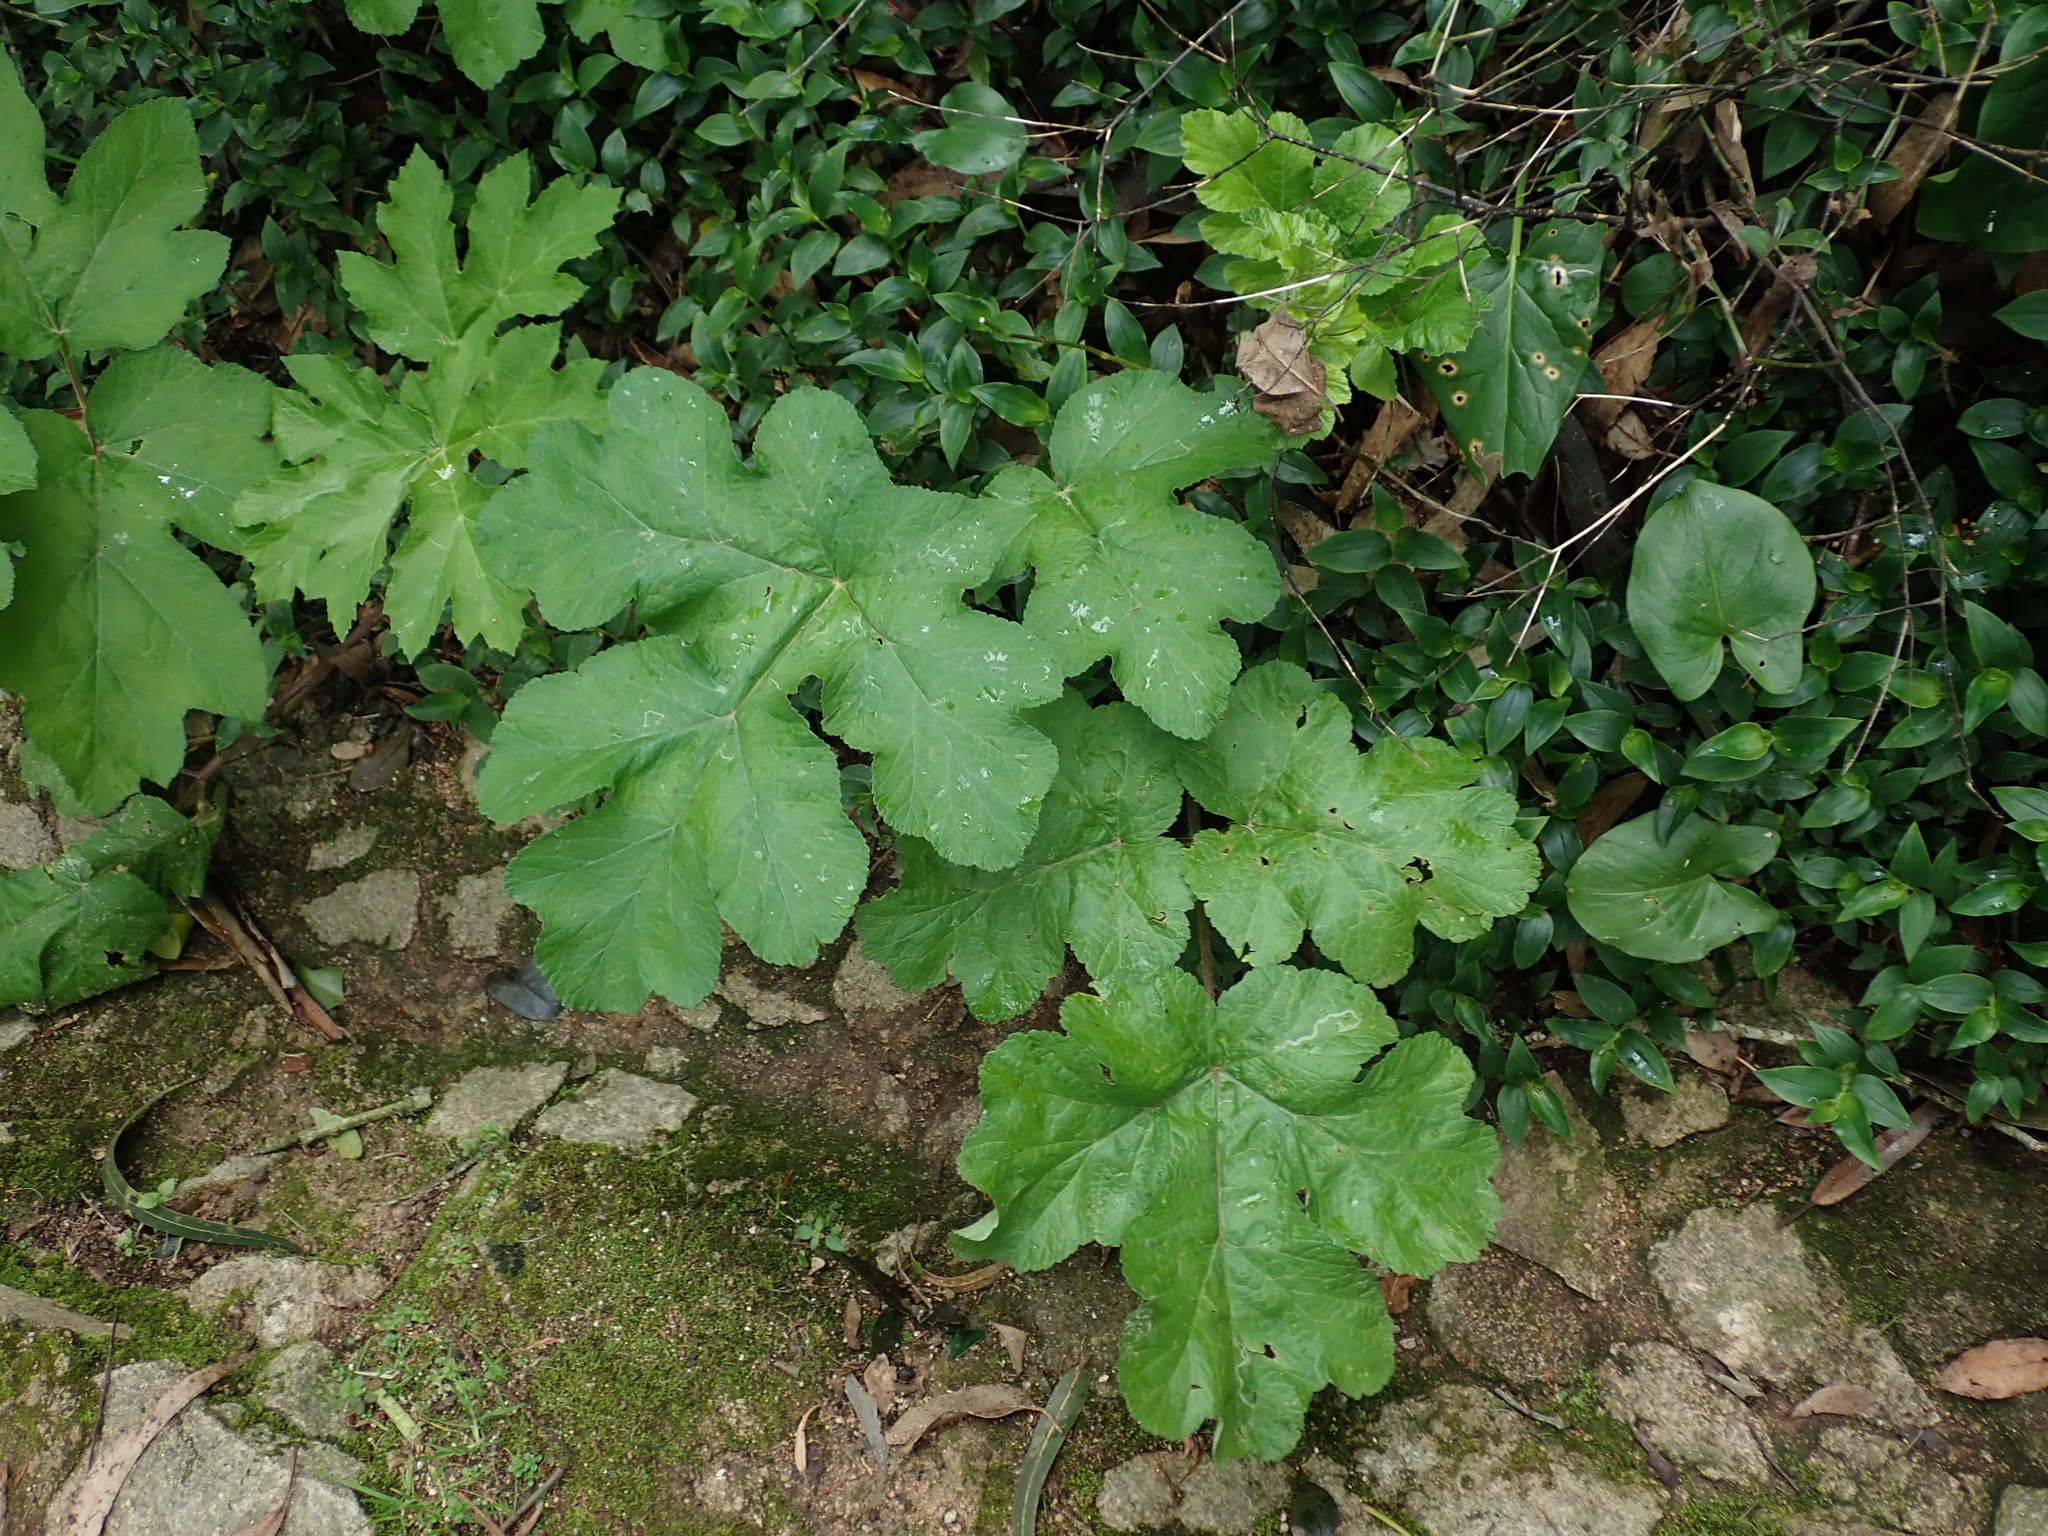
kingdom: Plantae
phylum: Tracheophyta
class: Magnoliopsida
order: Apiales
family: Apiaceae
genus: Heracleum
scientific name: Heracleum sphondylium
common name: Hogweed
